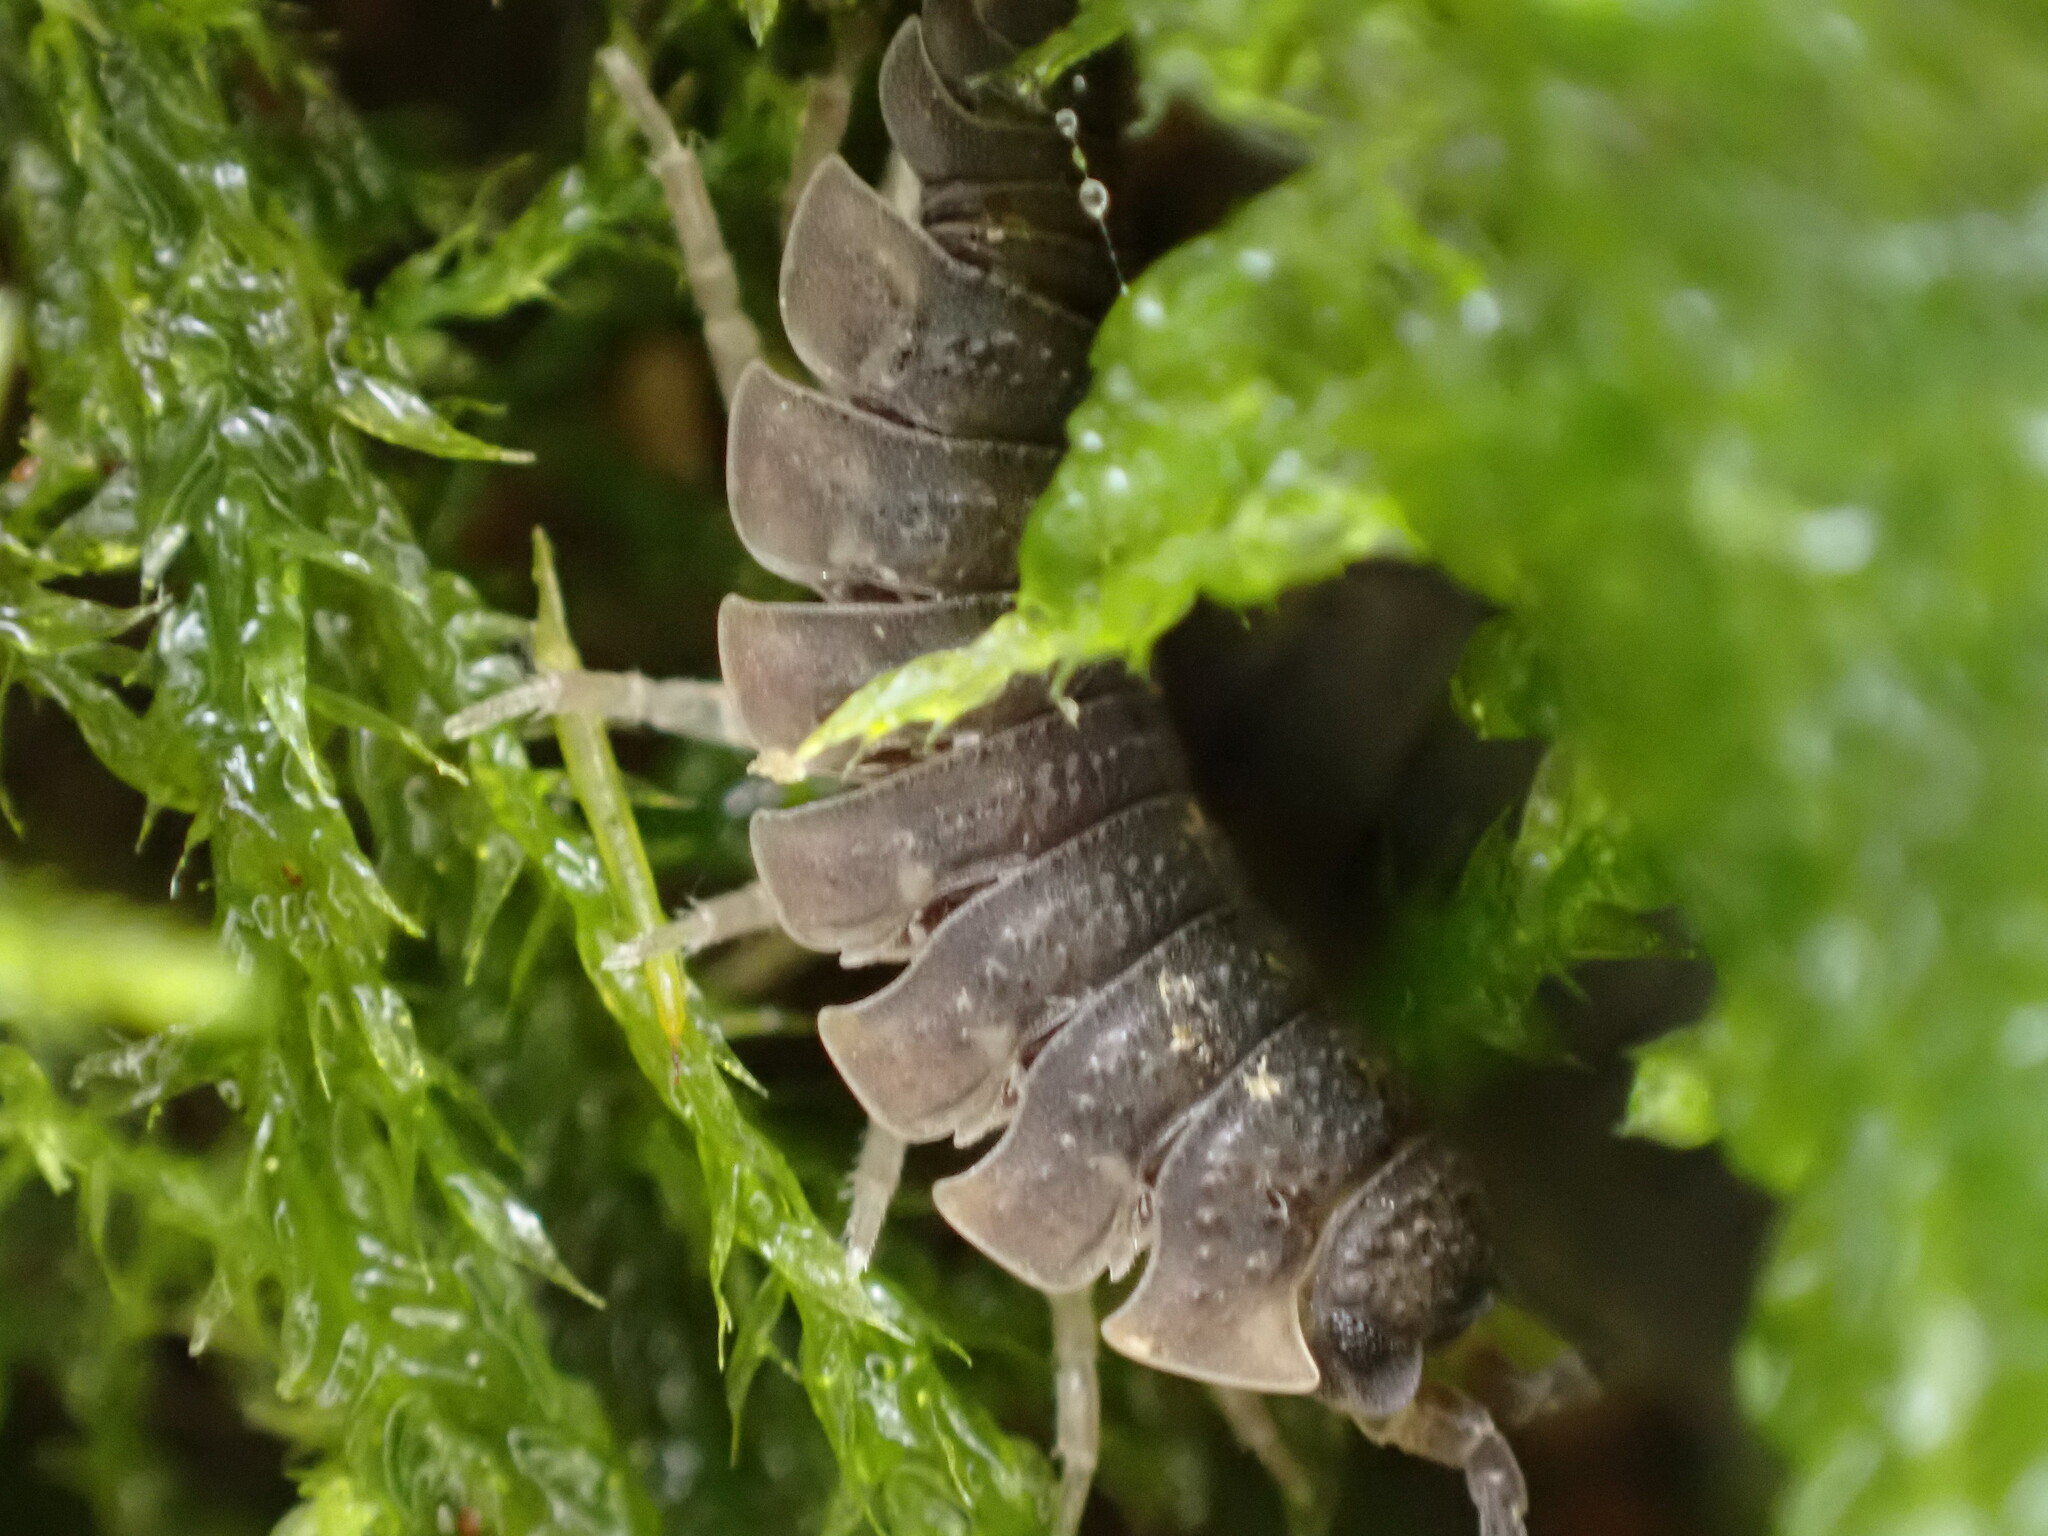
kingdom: Animalia
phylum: Arthropoda
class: Malacostraca
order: Isopoda
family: Porcellionidae
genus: Porcellio
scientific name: Porcellio scaber
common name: Common rough woodlouse
